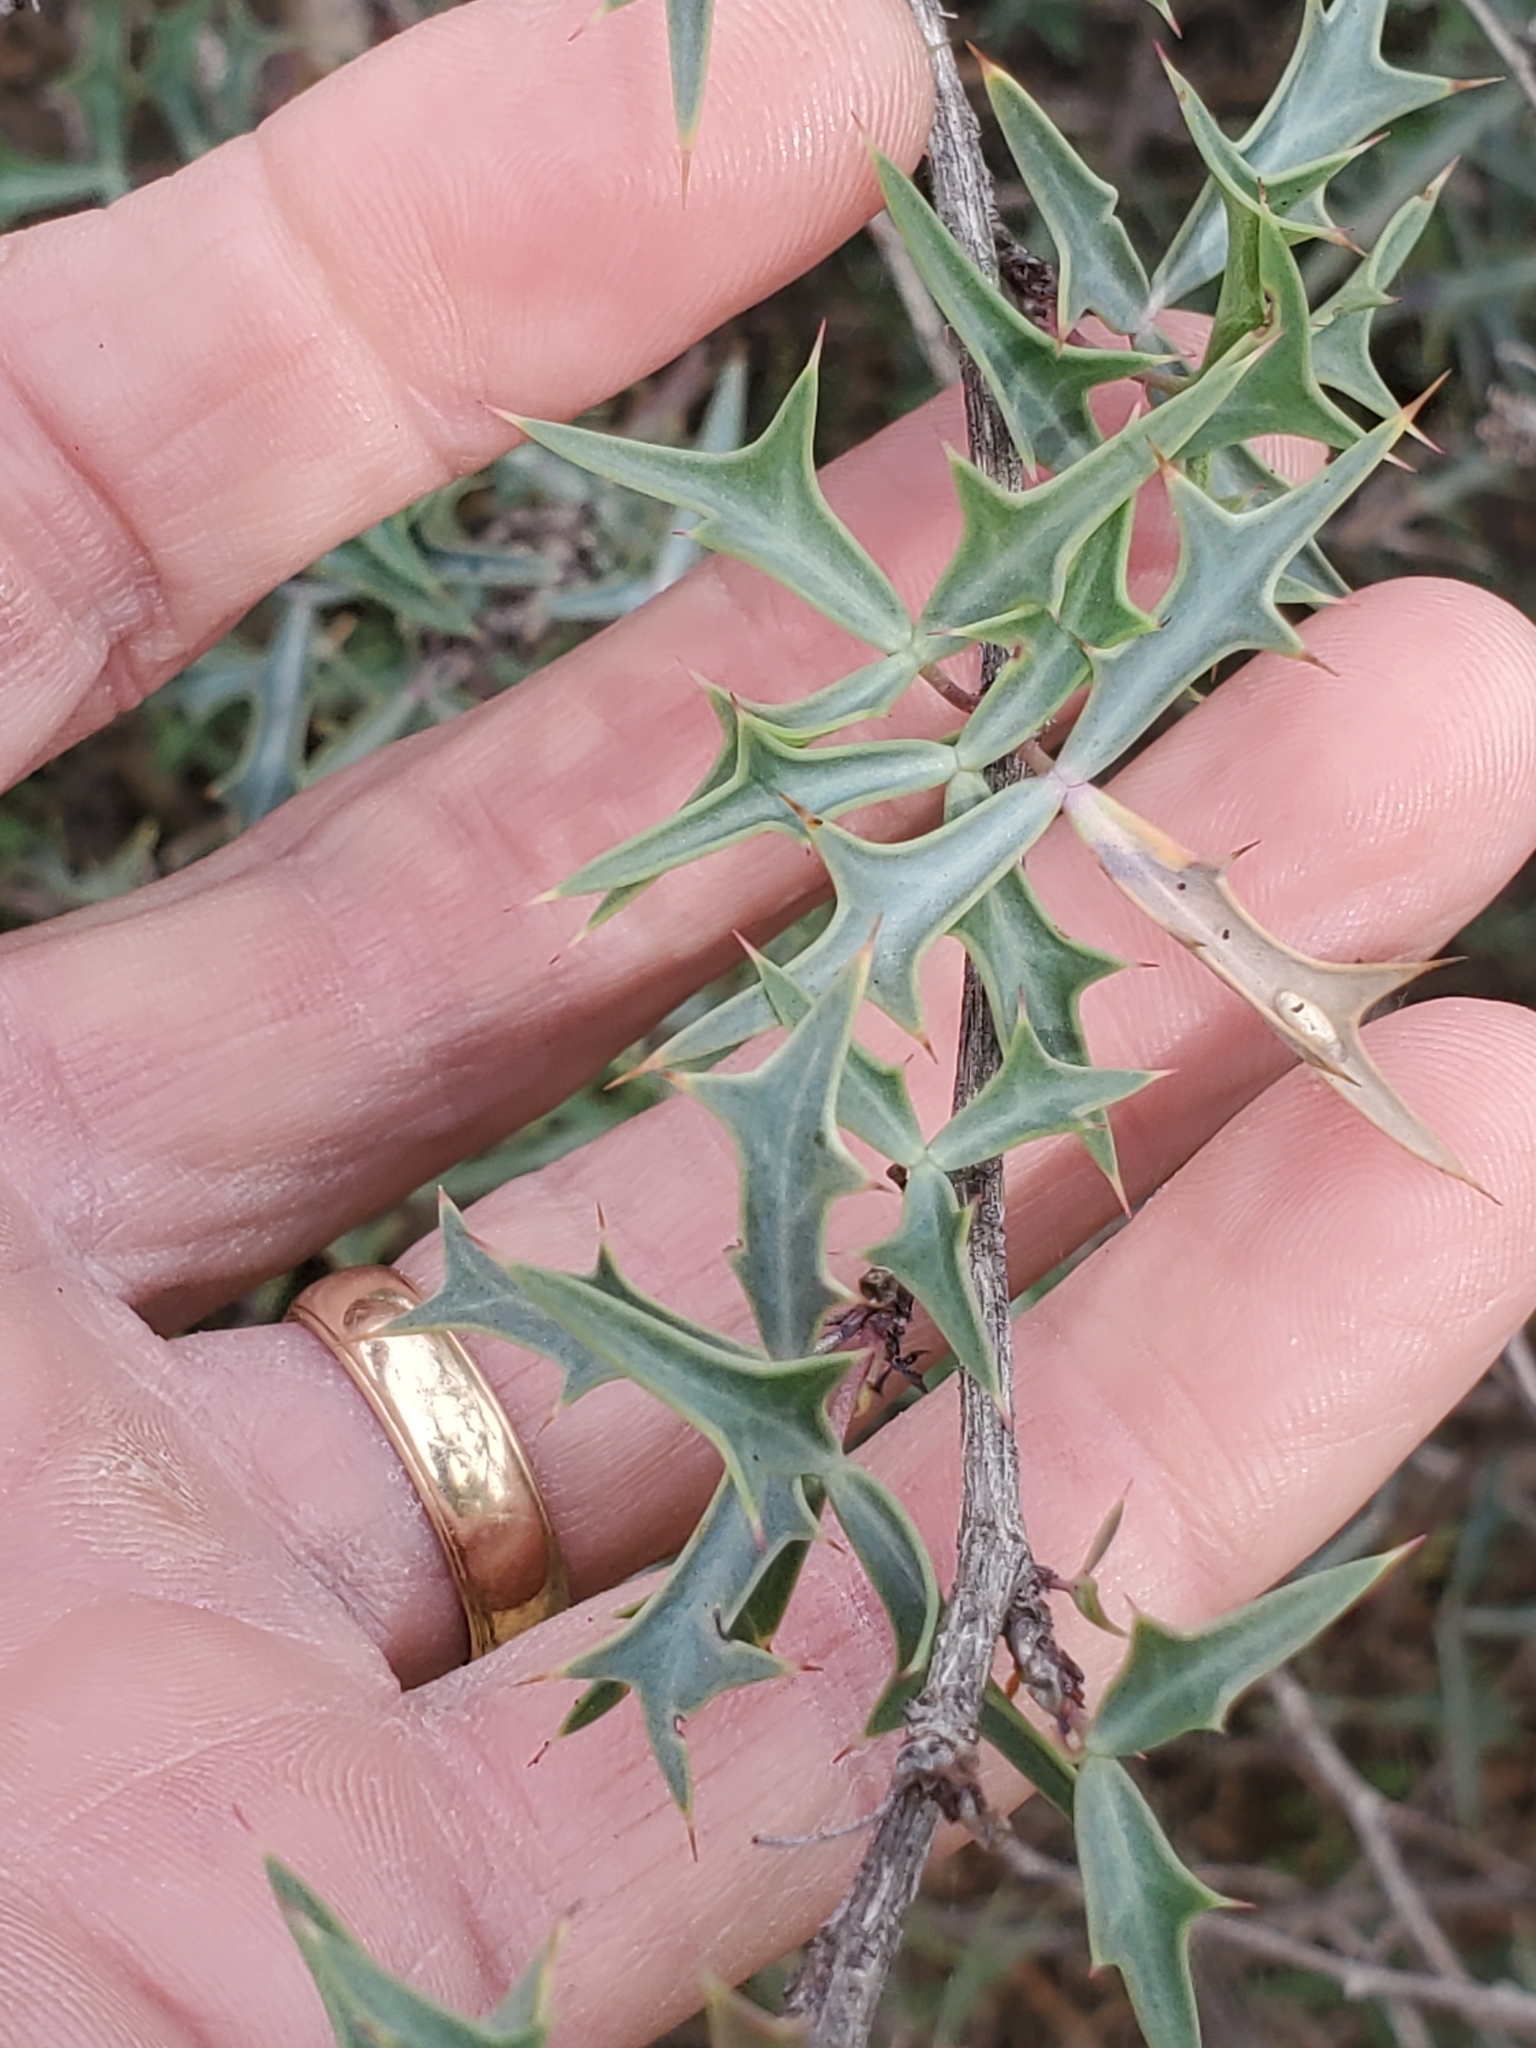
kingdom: Plantae
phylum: Tracheophyta
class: Magnoliopsida
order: Ranunculales
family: Berberidaceae
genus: Alloberberis
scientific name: Alloberberis trifoliolata
